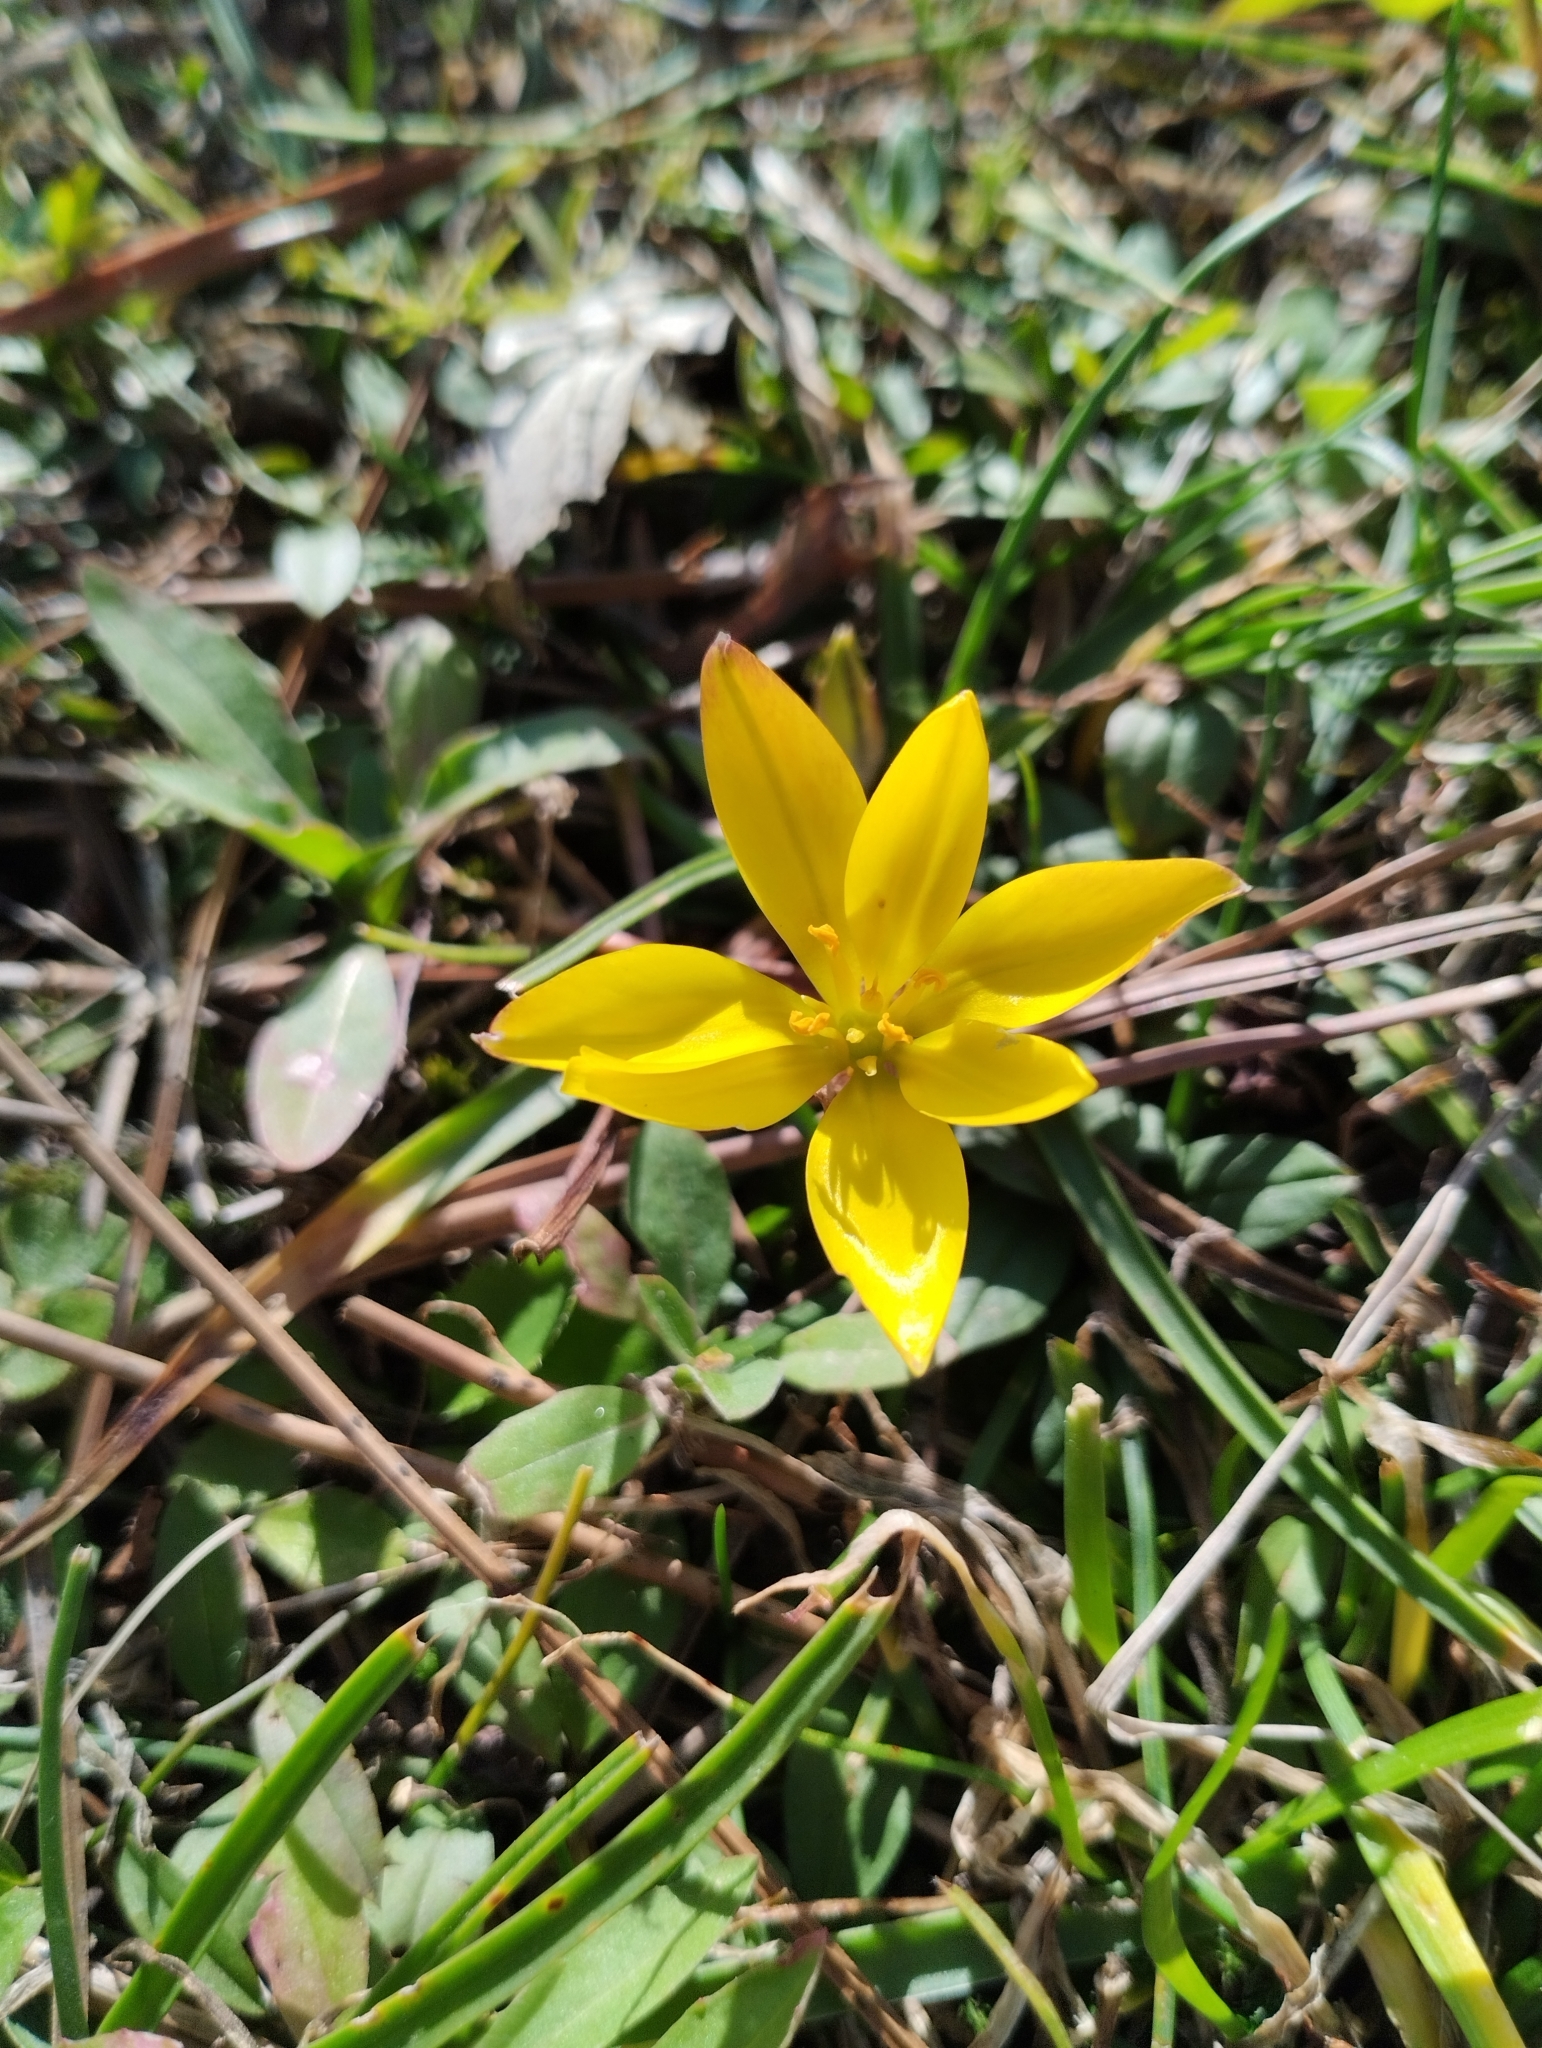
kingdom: Plantae
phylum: Tracheophyta
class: Liliopsida
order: Asparagales
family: Amaryllidaceae
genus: Nothoscordum
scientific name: Nothoscordum felipponei
